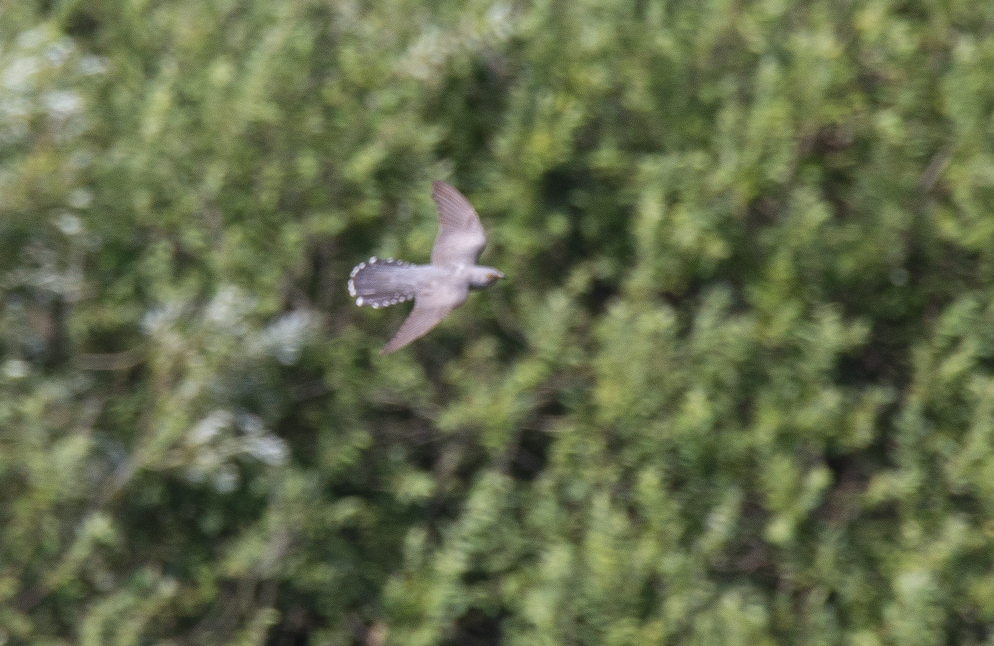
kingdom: Animalia
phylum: Chordata
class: Aves
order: Cuculiformes
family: Cuculidae
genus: Cuculus
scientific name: Cuculus canorus
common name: Common cuckoo
